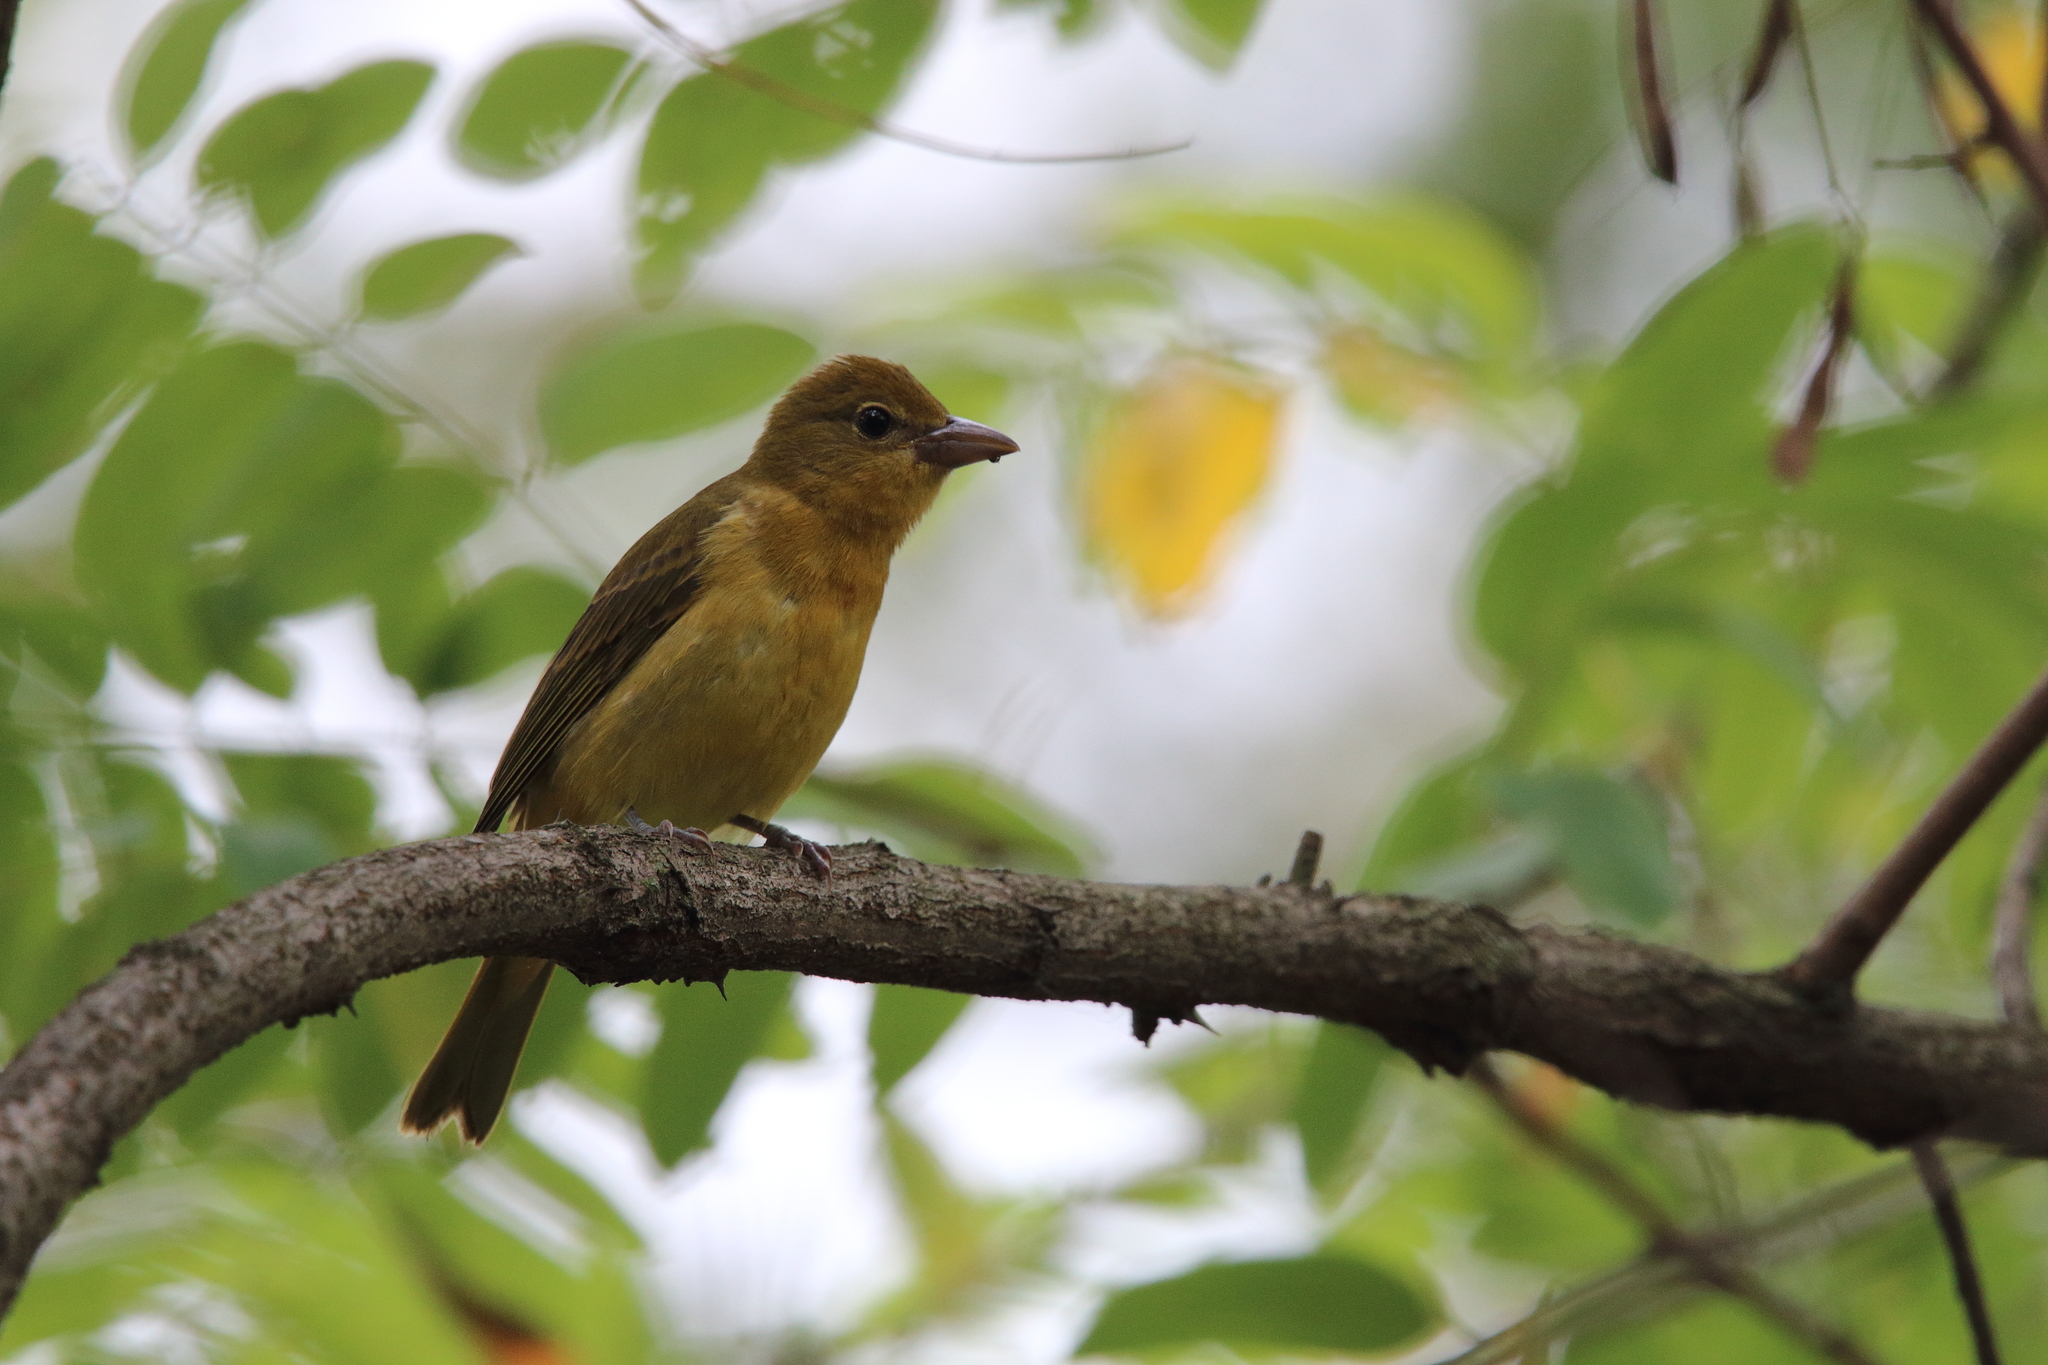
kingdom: Animalia
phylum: Chordata
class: Aves
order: Passeriformes
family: Cardinalidae
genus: Piranga
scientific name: Piranga olivacea
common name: Scarlet tanager
